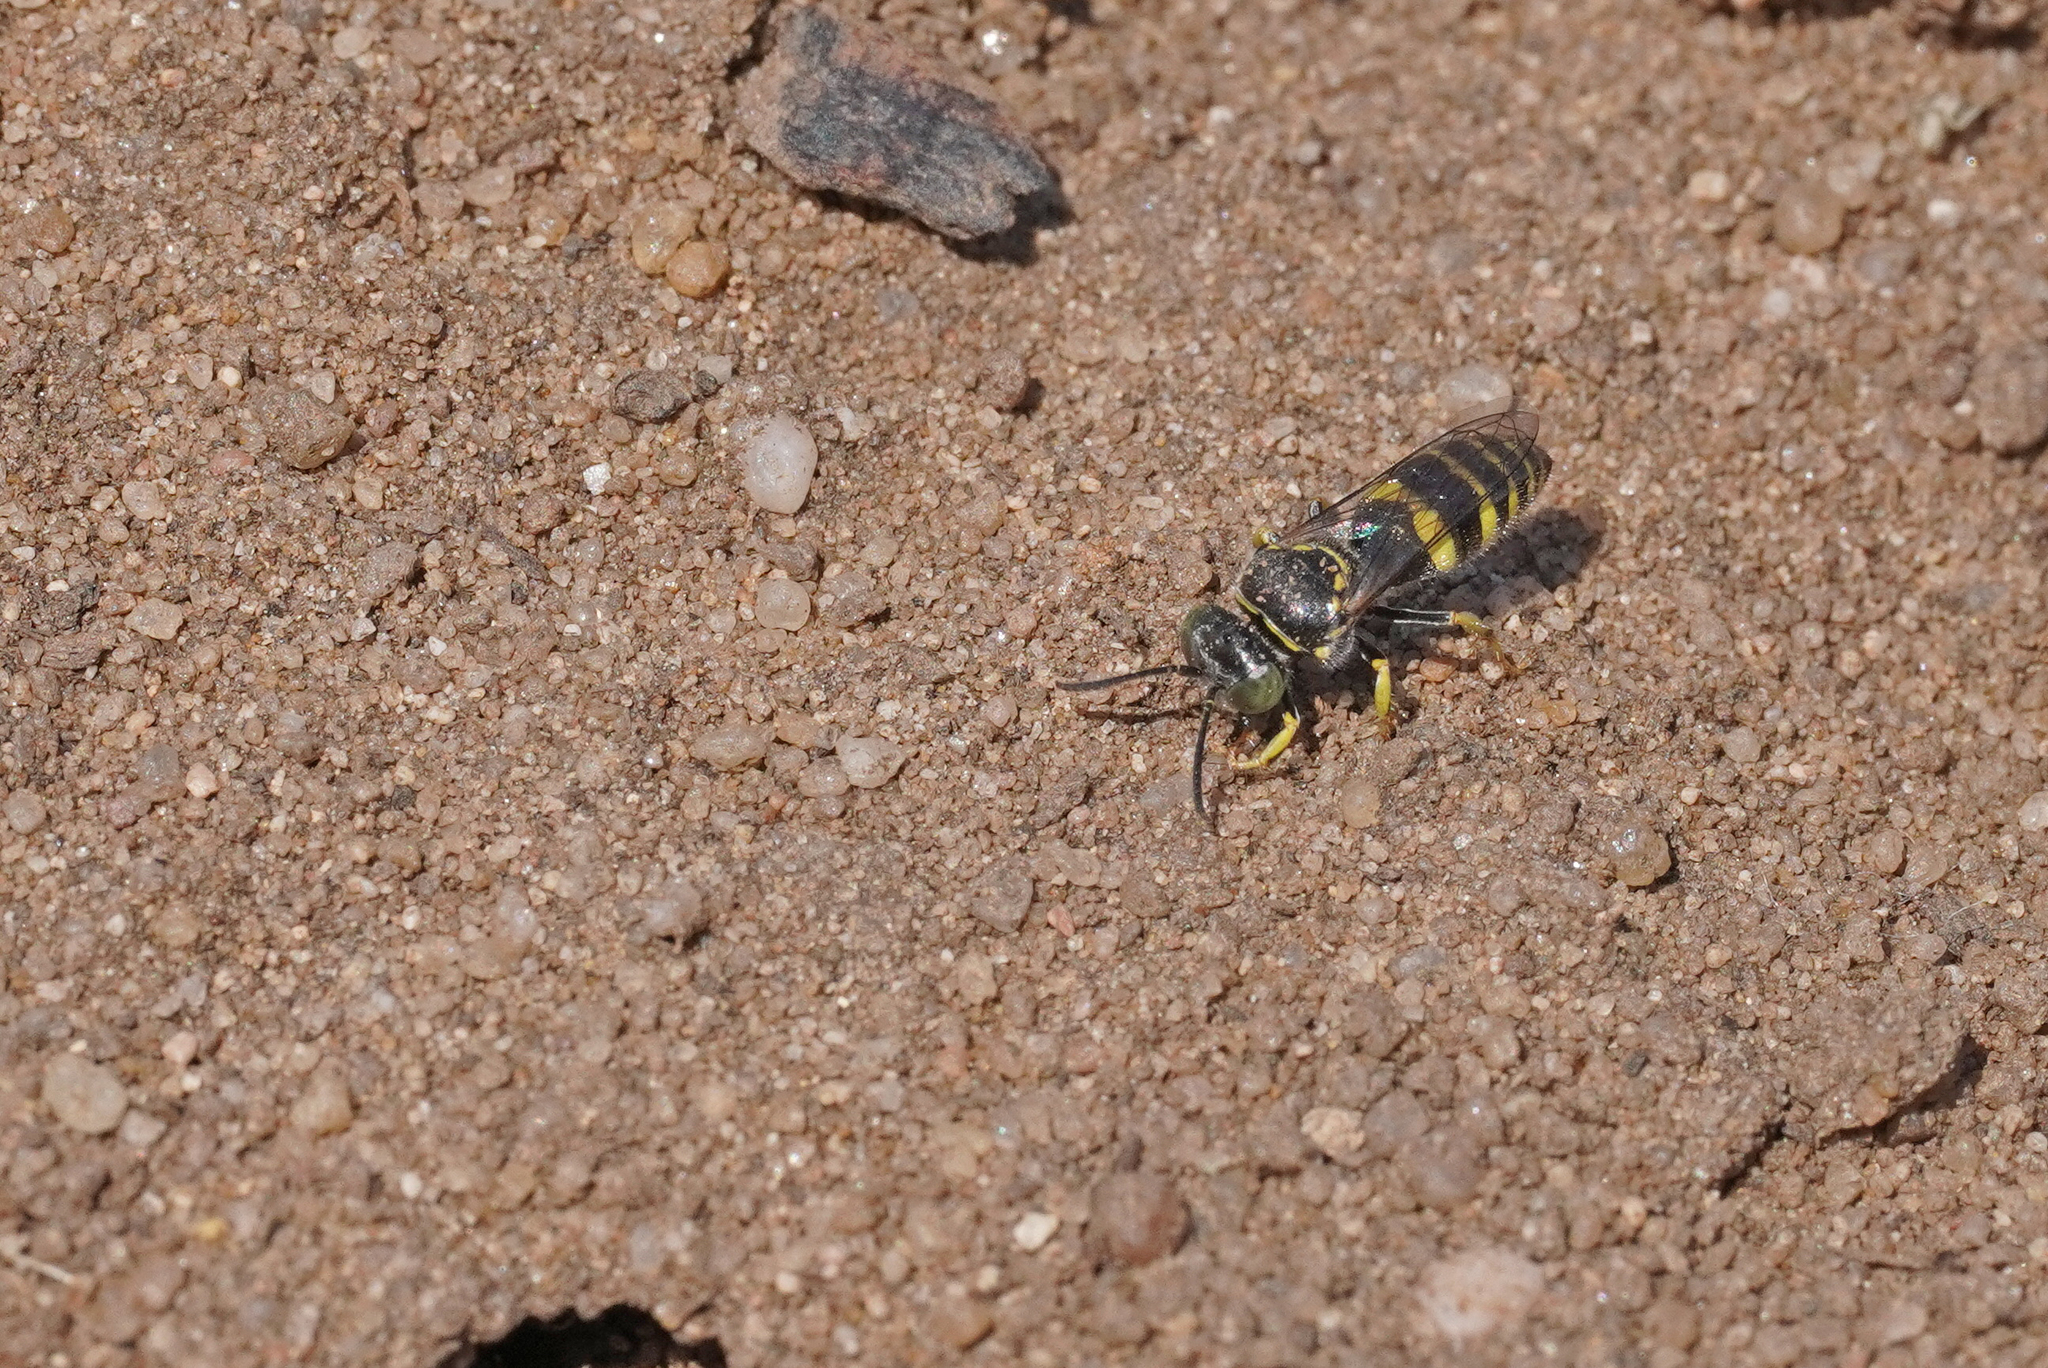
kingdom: Animalia
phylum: Arthropoda
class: Insecta
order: Hymenoptera
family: Crabronidae
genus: Bembecinus
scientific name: Bembecinus tridens
